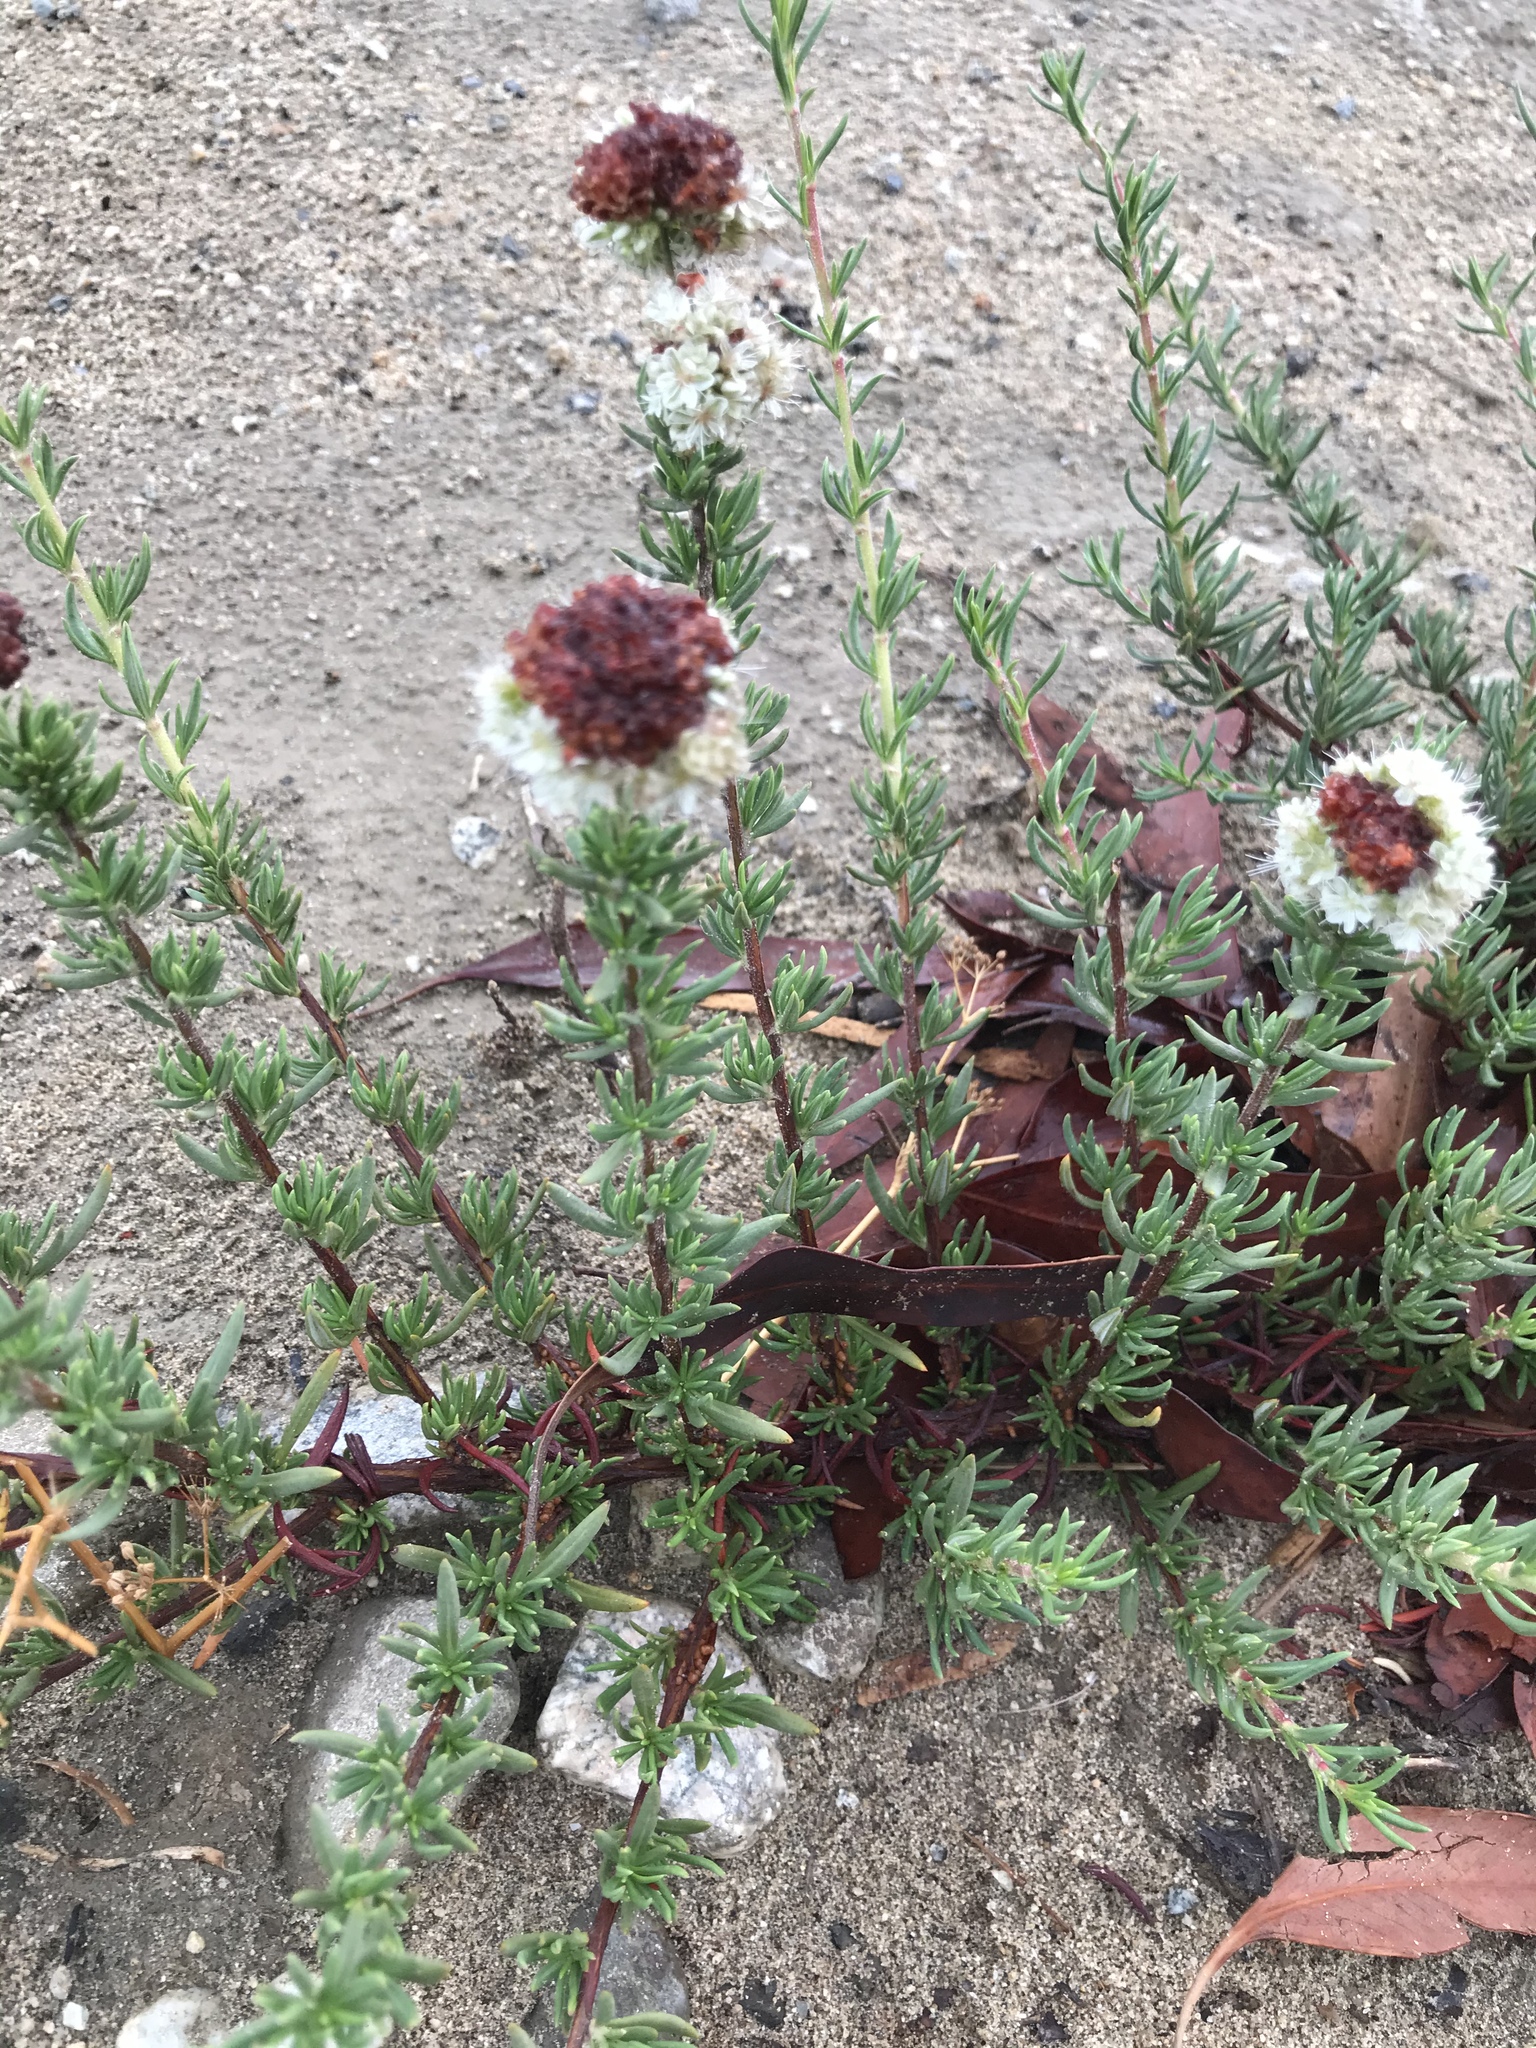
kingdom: Plantae
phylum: Tracheophyta
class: Magnoliopsida
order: Caryophyllales
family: Polygonaceae
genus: Eriogonum
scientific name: Eriogonum fasciculatum
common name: California wild buckwheat
